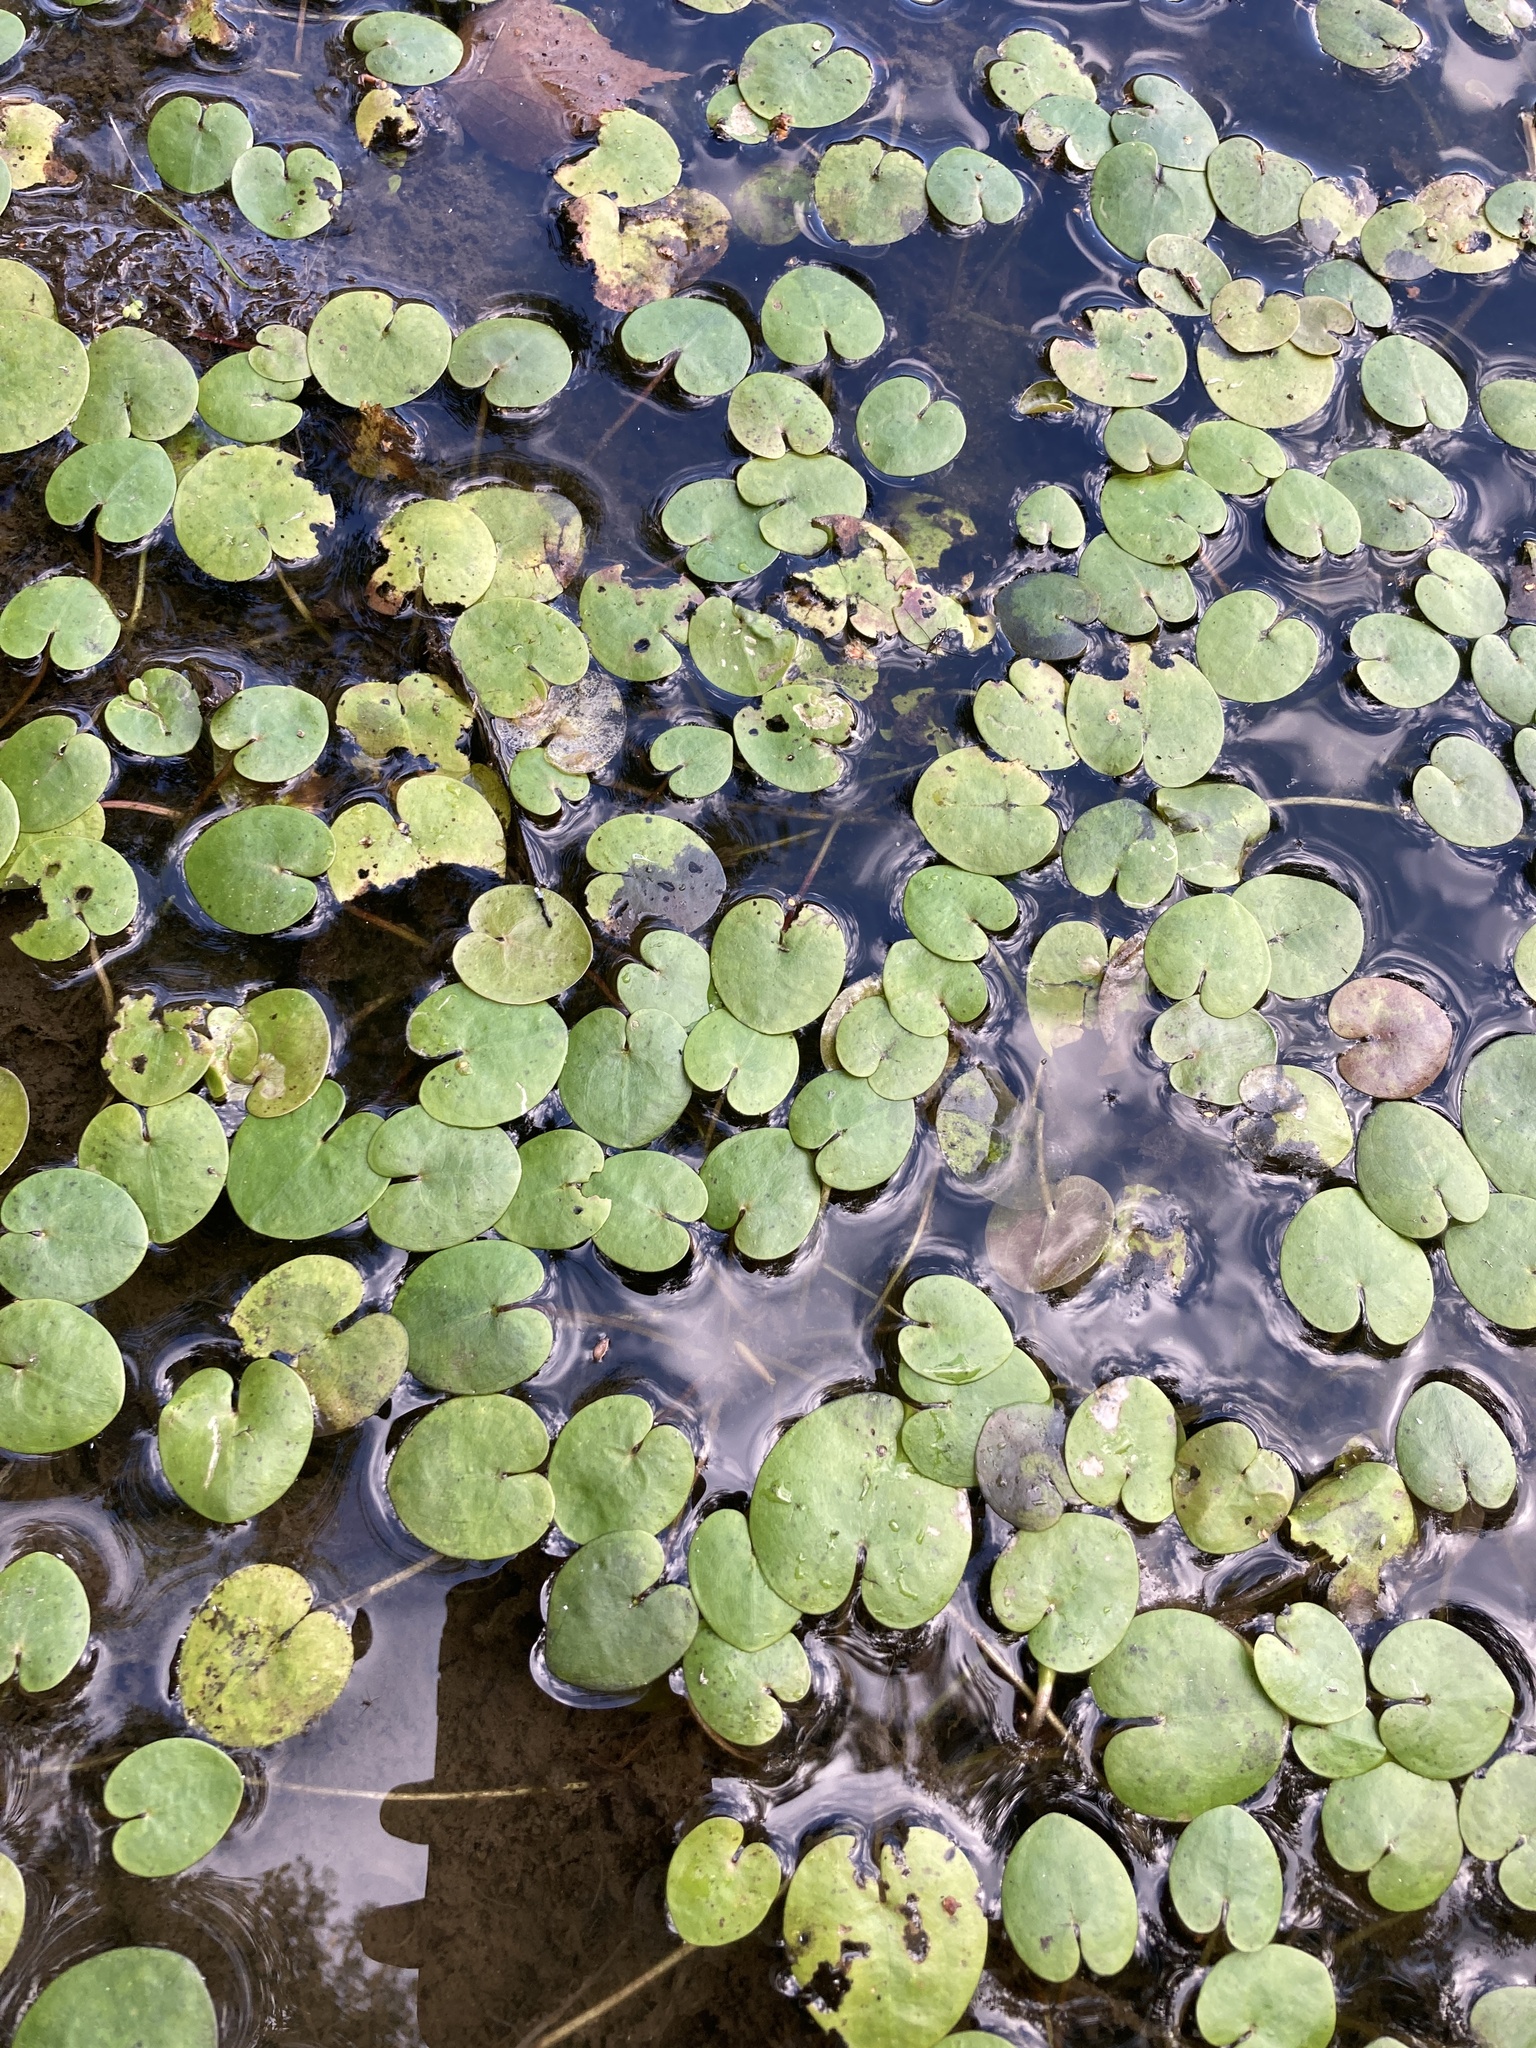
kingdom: Plantae
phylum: Tracheophyta
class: Liliopsida
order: Alismatales
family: Hydrocharitaceae
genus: Hydrocharis
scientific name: Hydrocharis morsus-ranae
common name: Frogbit
